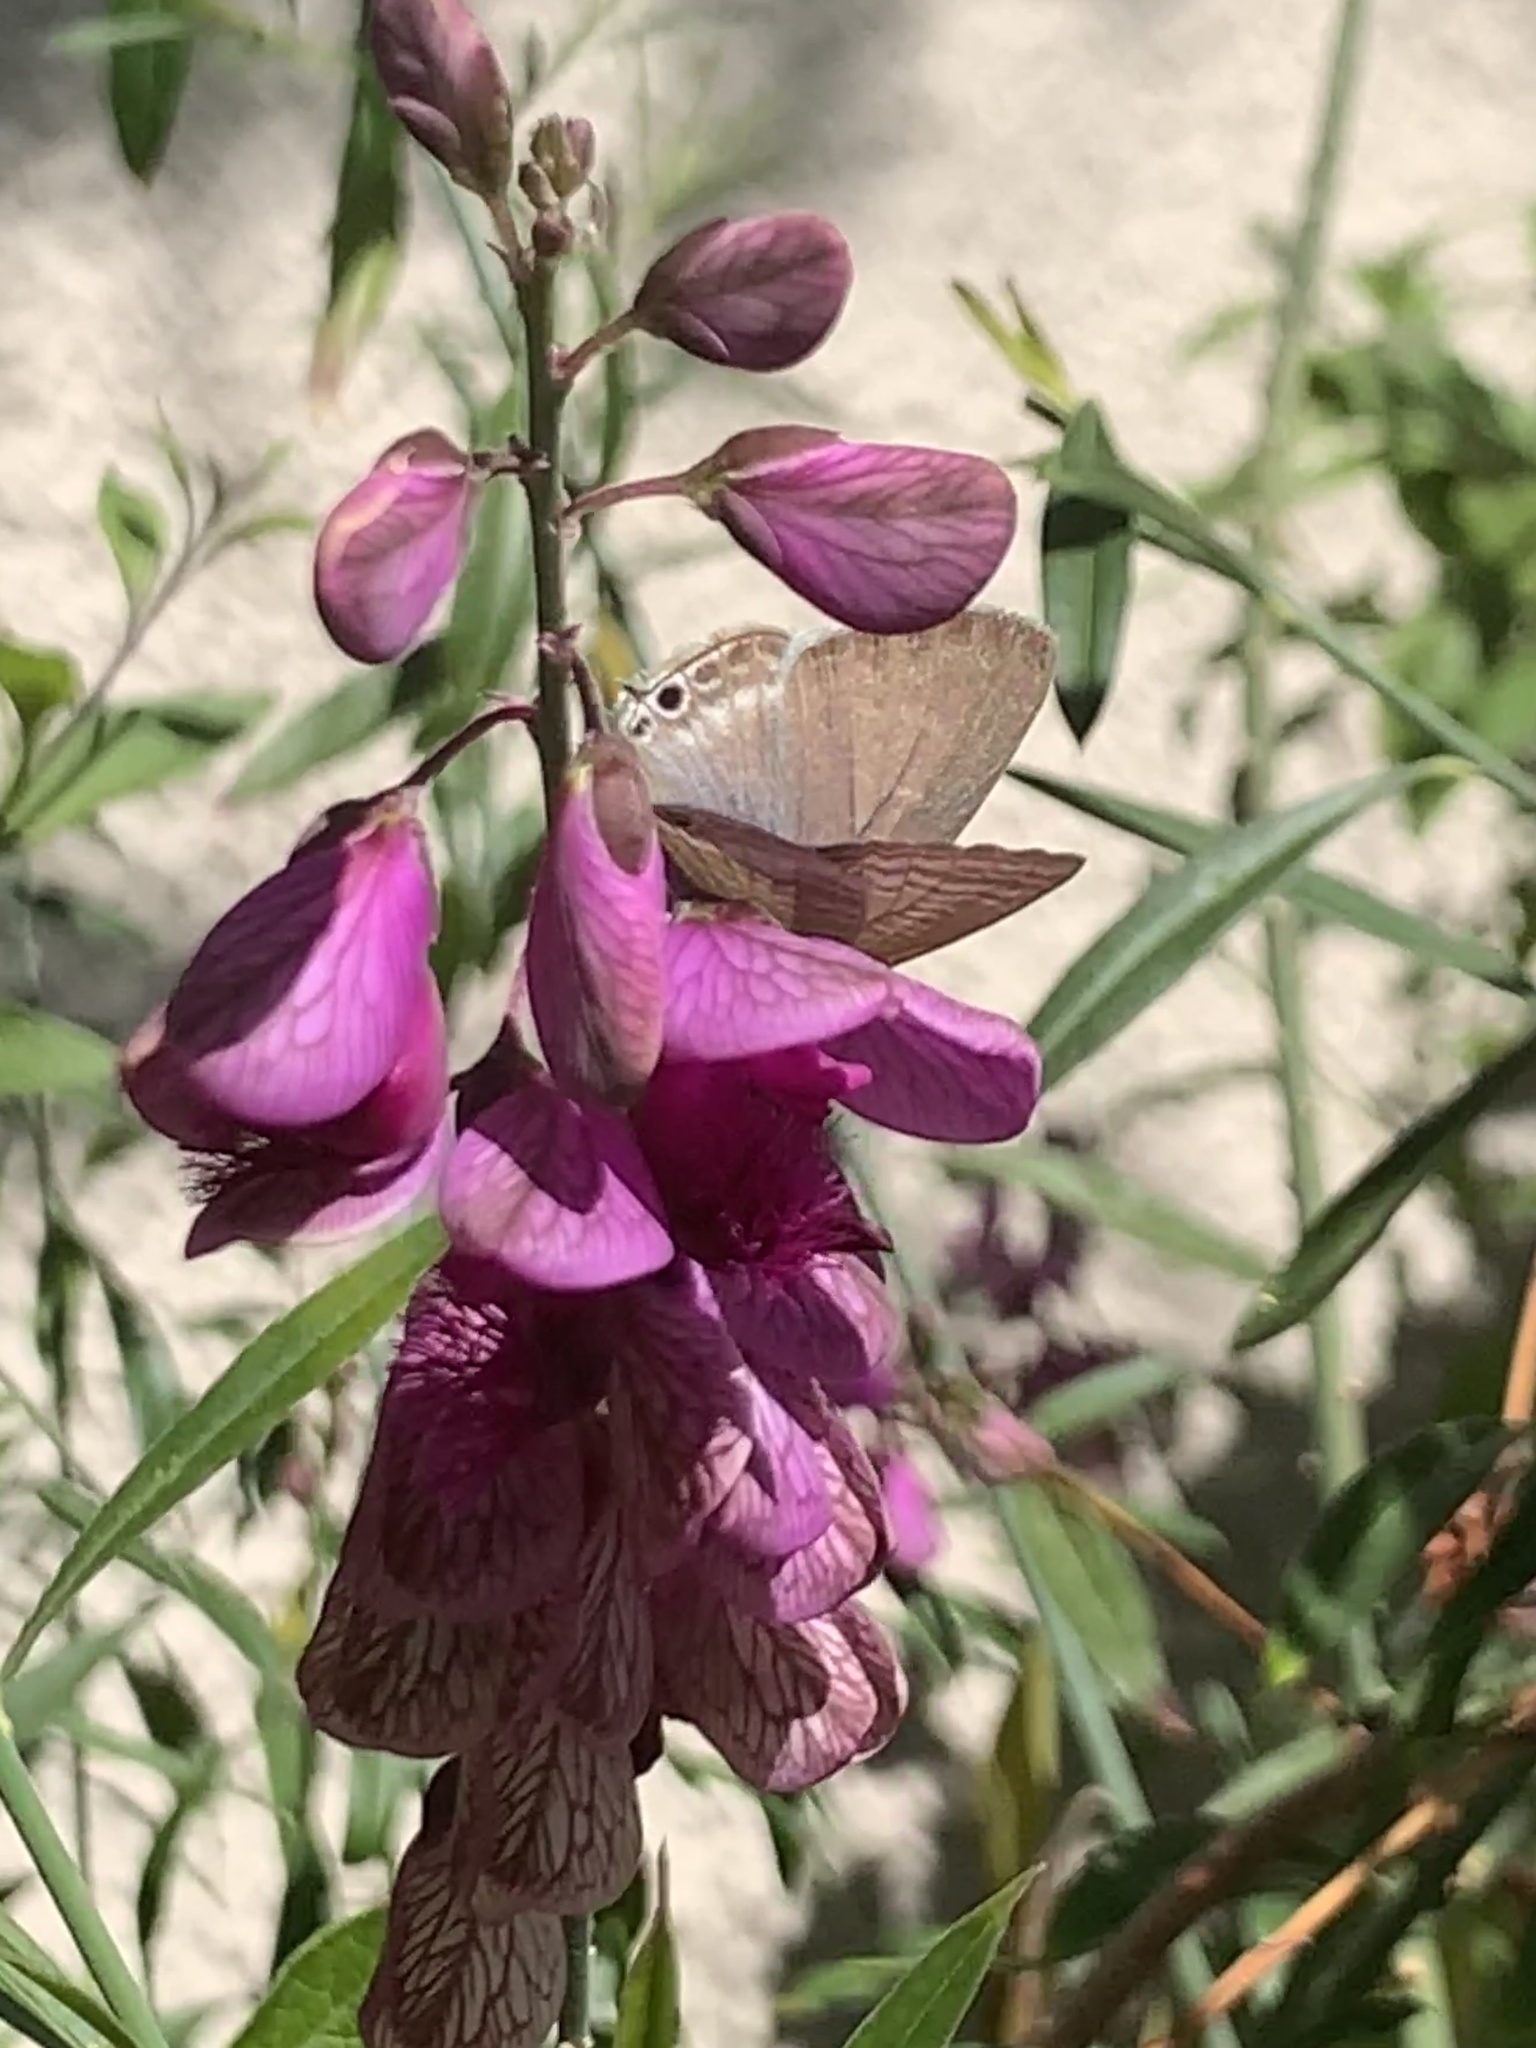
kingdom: Animalia
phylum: Arthropoda
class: Insecta
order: Lepidoptera
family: Lycaenidae
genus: Lampides
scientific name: Lampides boeticus
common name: Long-tailed blue
